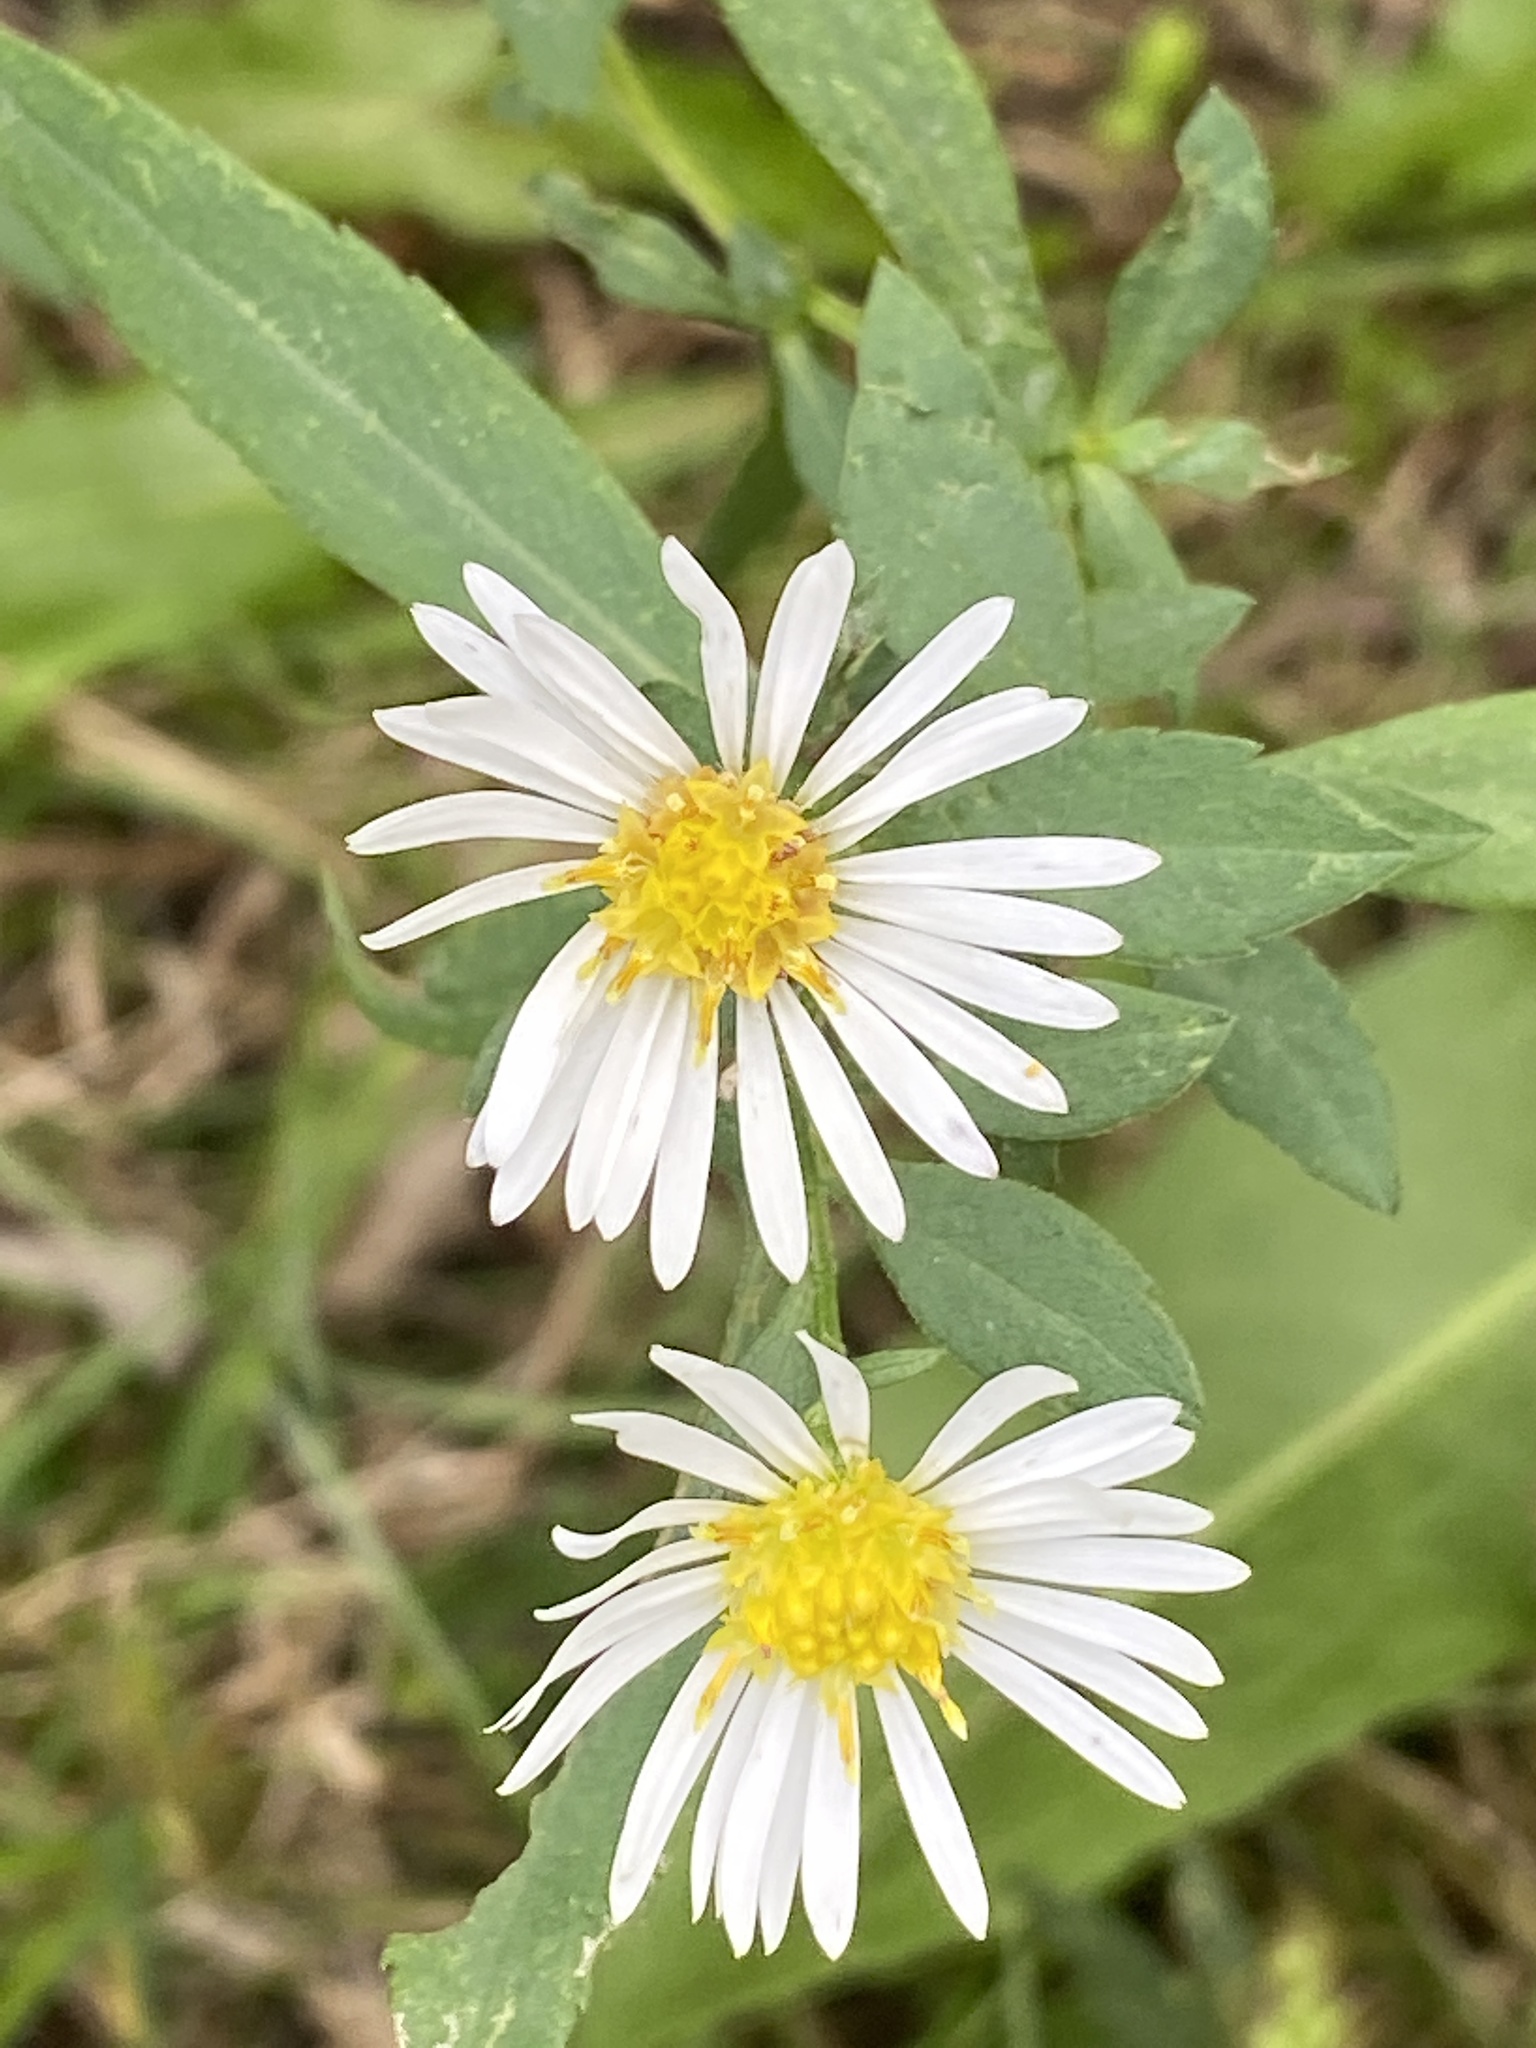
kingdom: Plantae
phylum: Tracheophyta
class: Magnoliopsida
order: Asterales
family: Asteraceae
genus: Symphyotrichum
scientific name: Symphyotrichum lanceolatum
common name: Panicled aster
